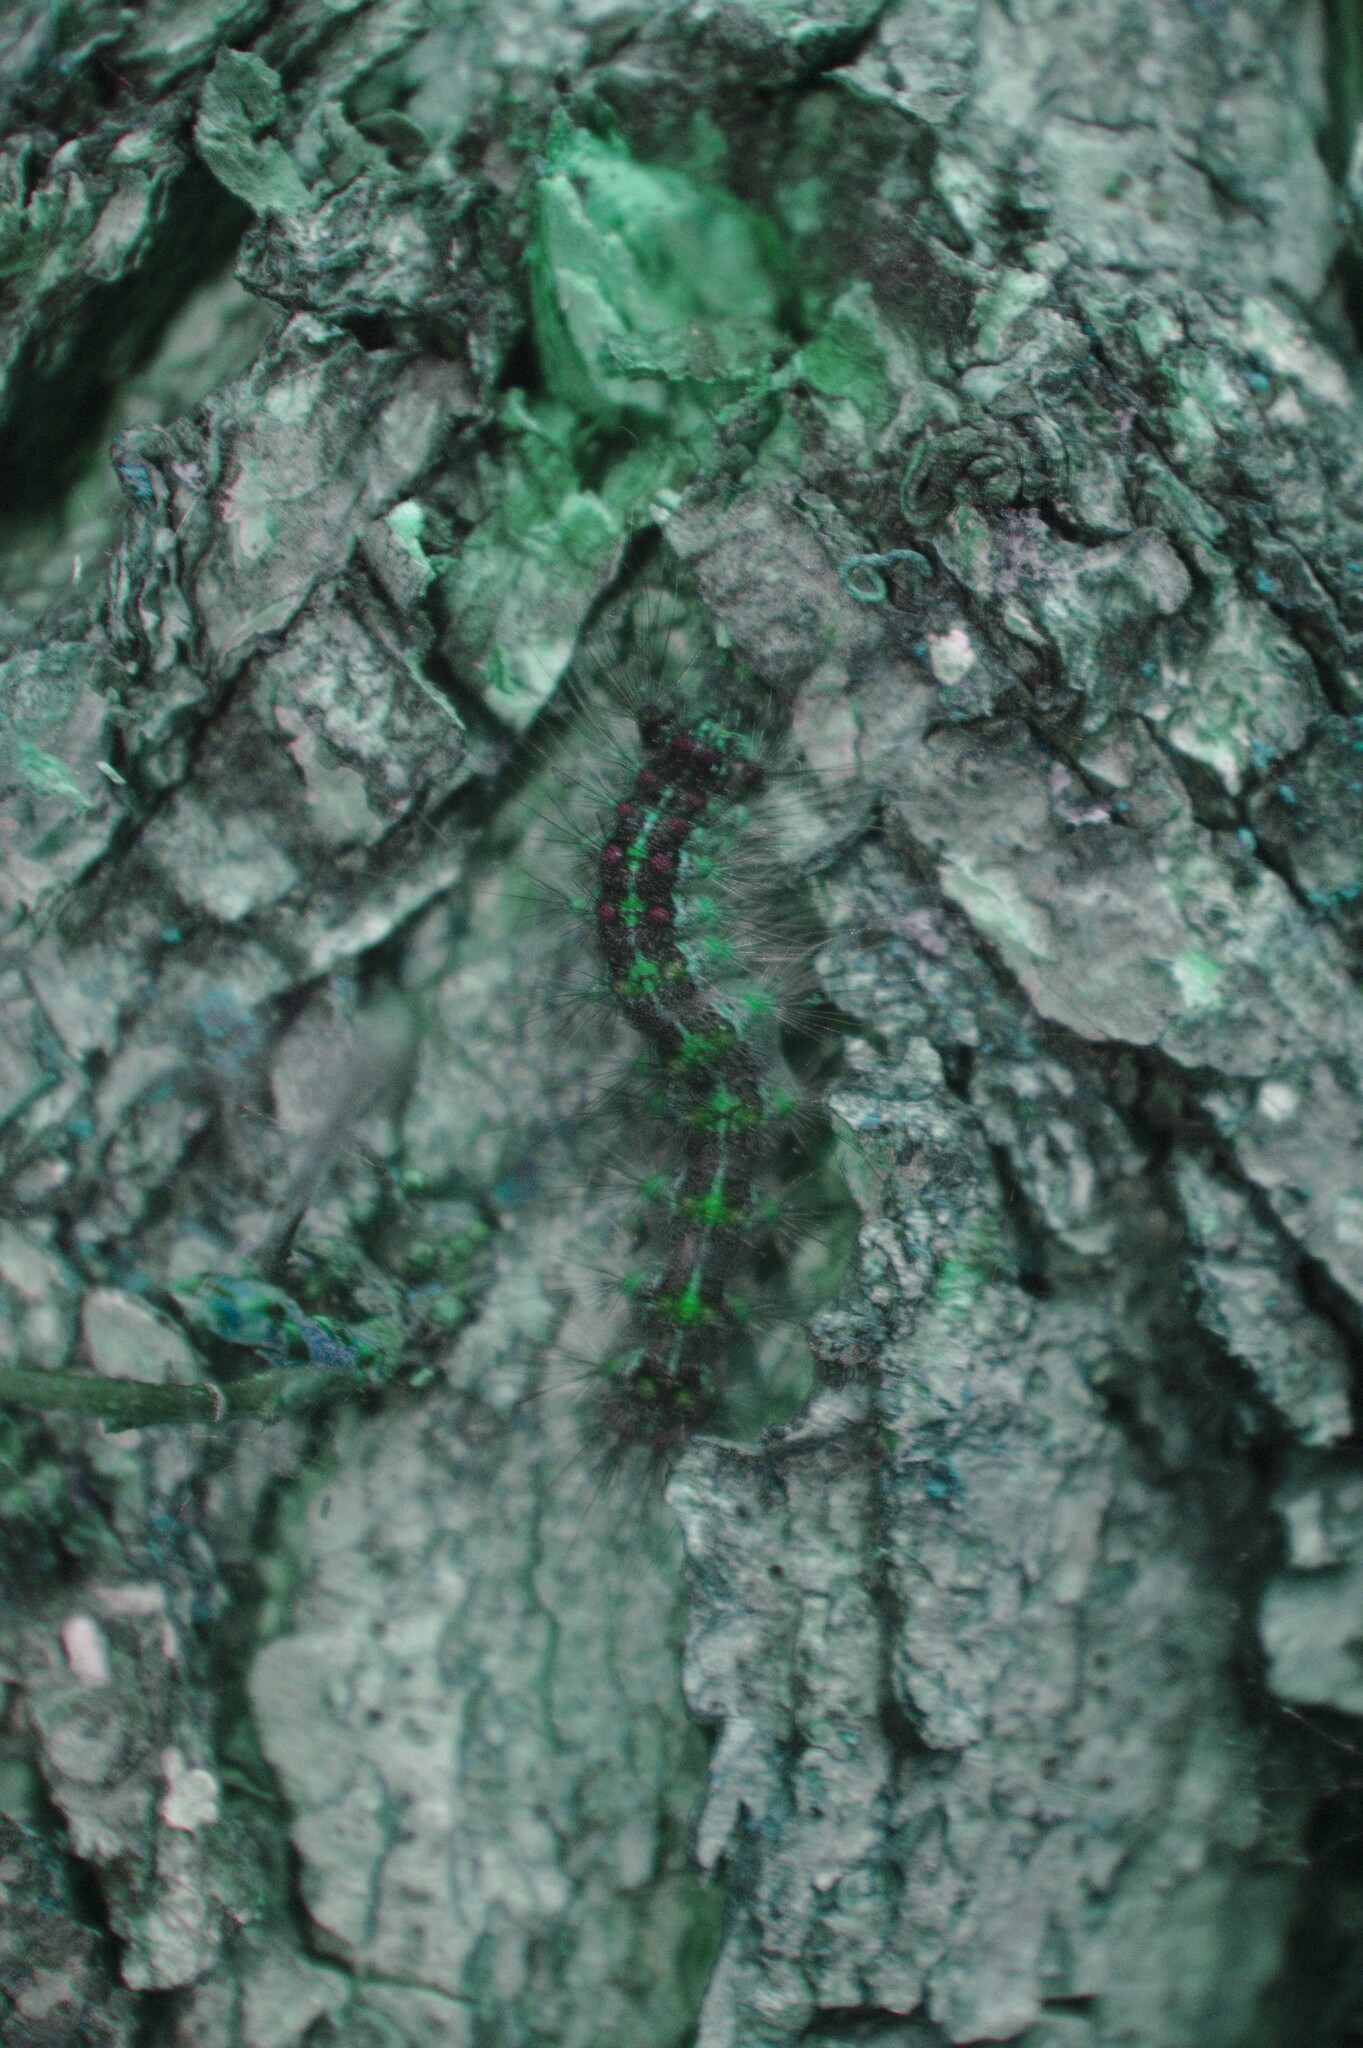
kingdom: Animalia
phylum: Arthropoda
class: Insecta
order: Lepidoptera
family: Erebidae
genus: Lymantria
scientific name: Lymantria dispar
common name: Gypsy moth
